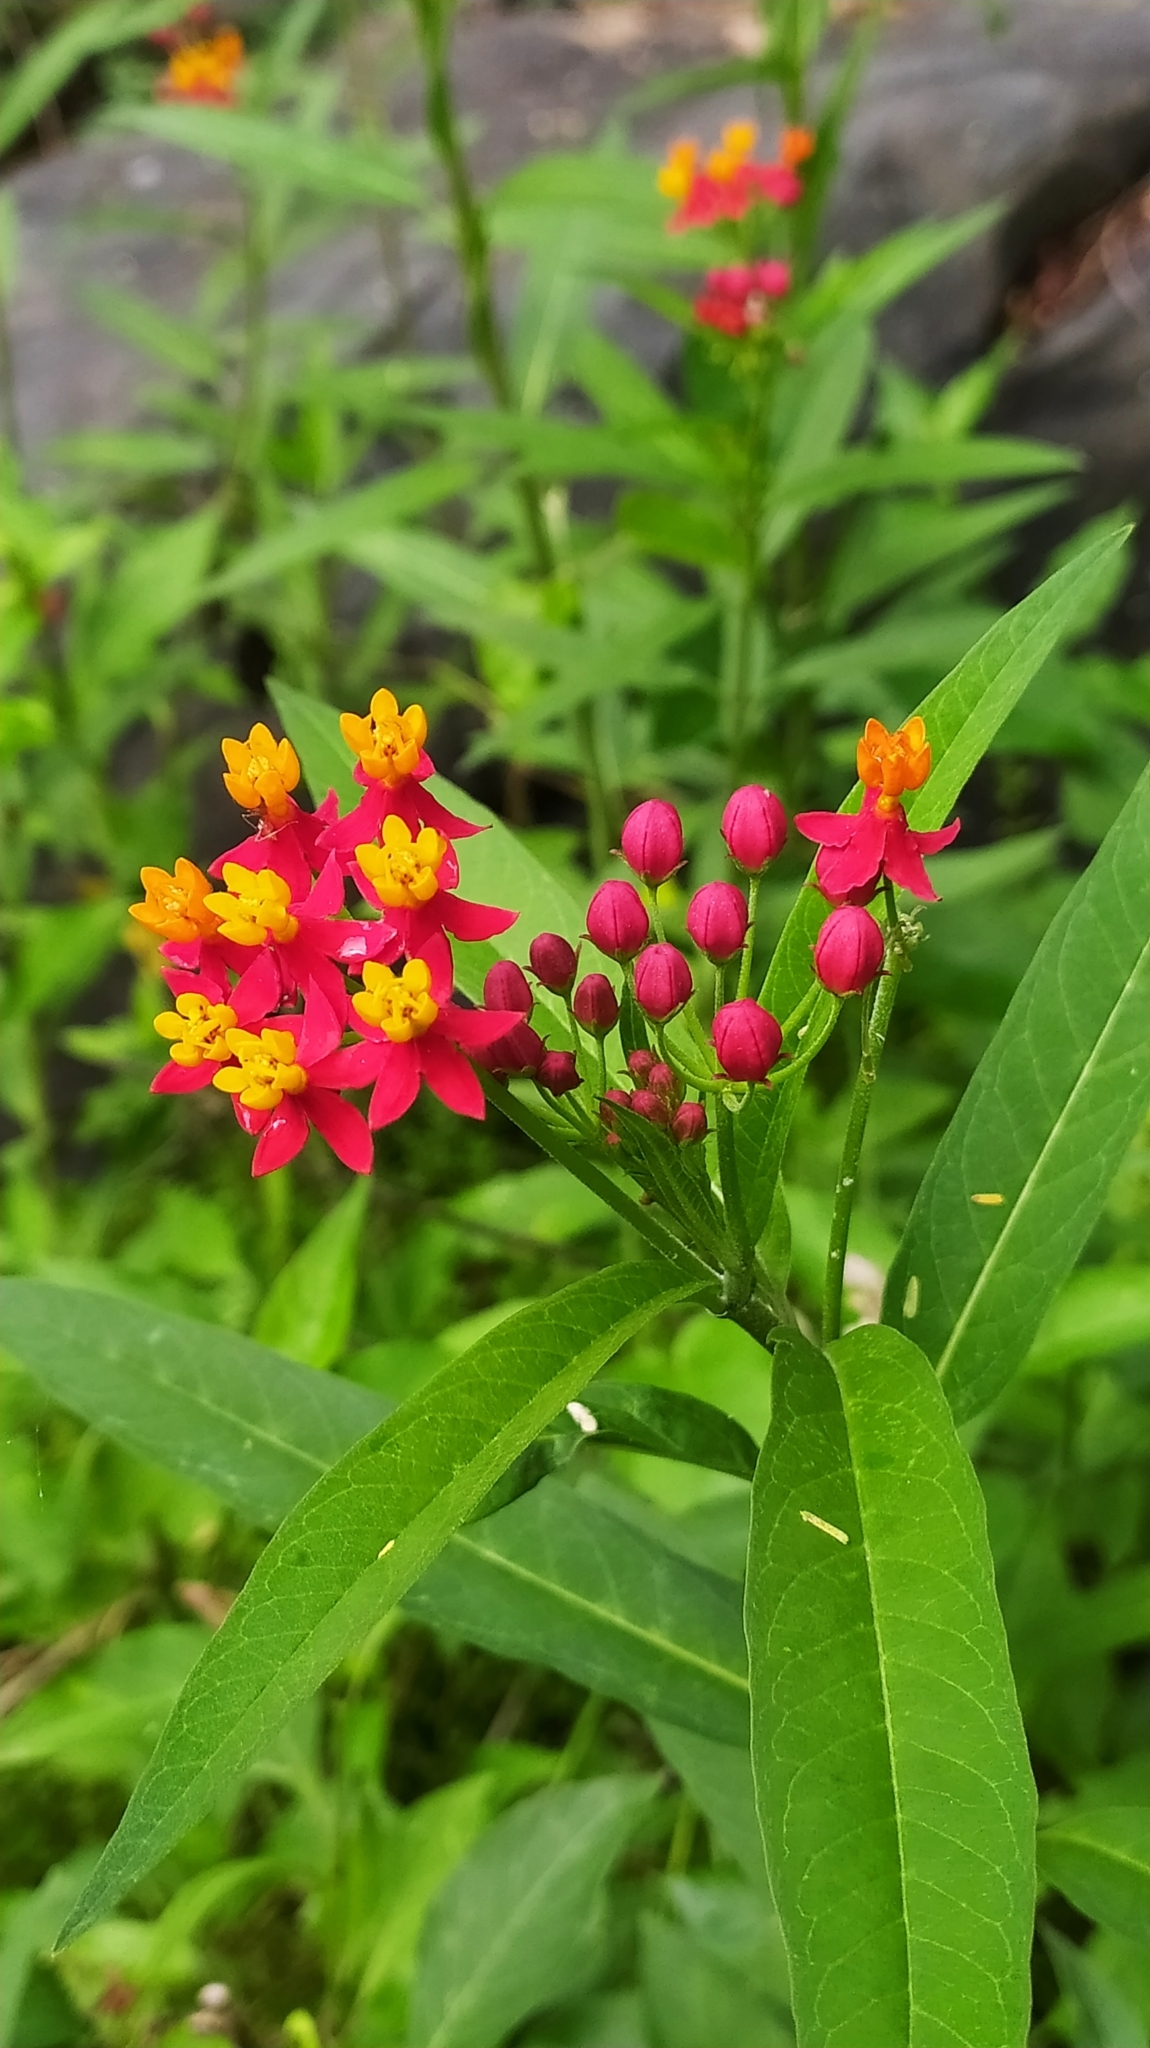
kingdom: Plantae
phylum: Tracheophyta
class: Magnoliopsida
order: Gentianales
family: Apocynaceae
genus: Asclepias
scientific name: Asclepias curassavica
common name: Bloodflower
